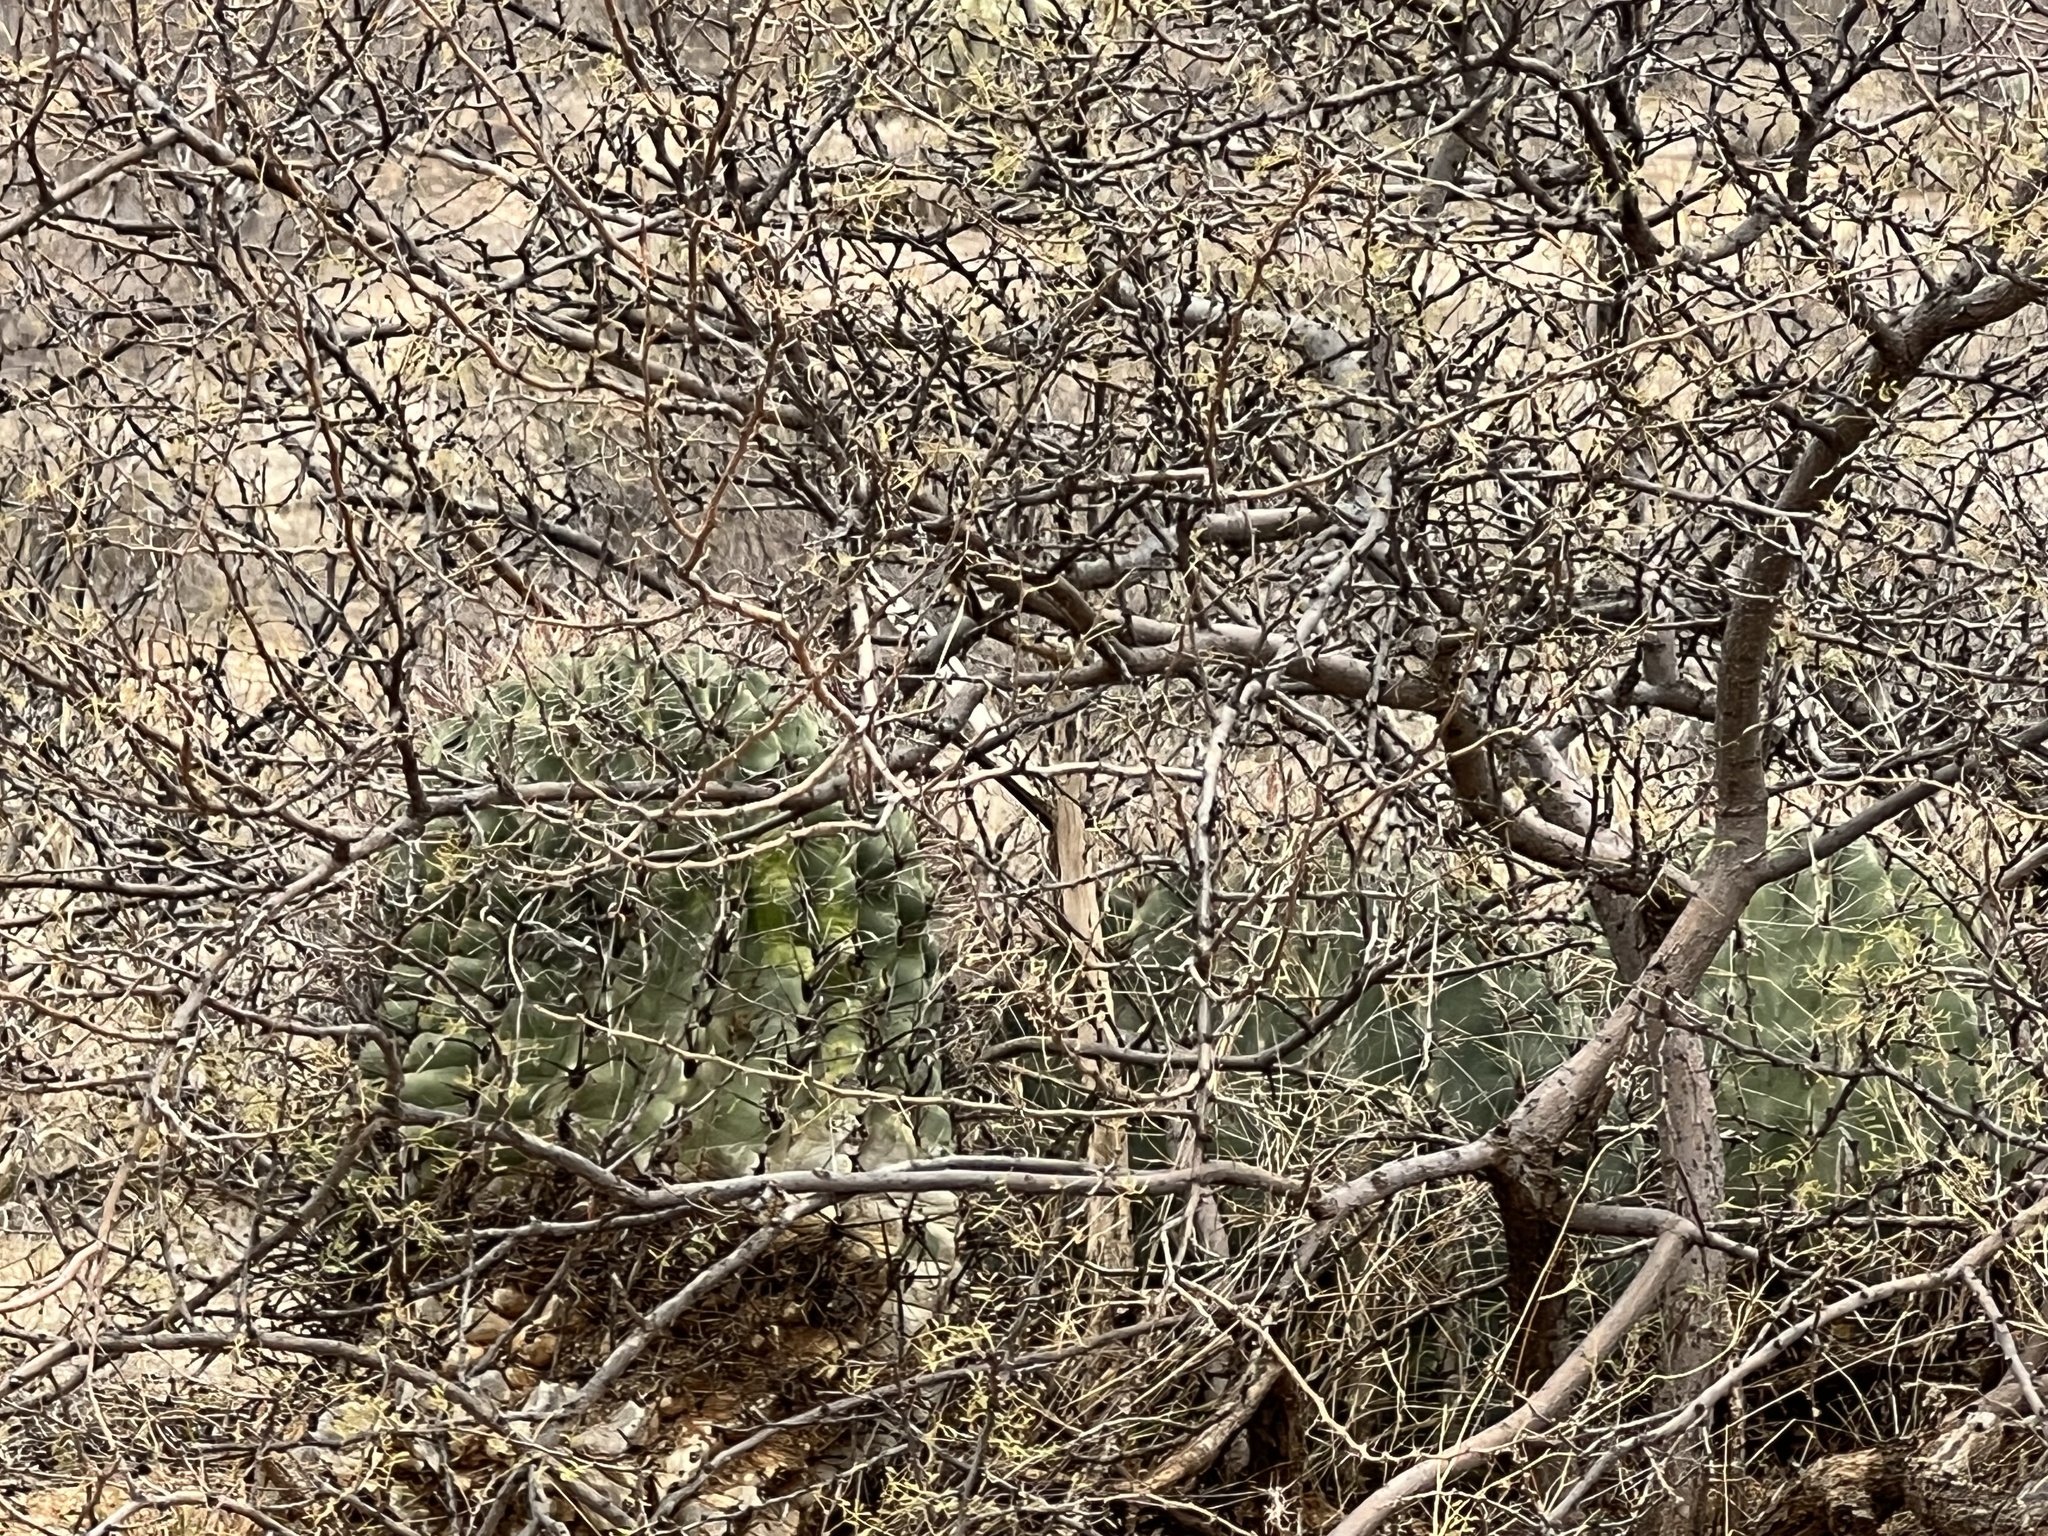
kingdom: Plantae
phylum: Tracheophyta
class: Magnoliopsida
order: Caryophyllales
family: Cactaceae
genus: Ferocactus
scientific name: Ferocactus wislizeni
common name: Candy barrel cactus
